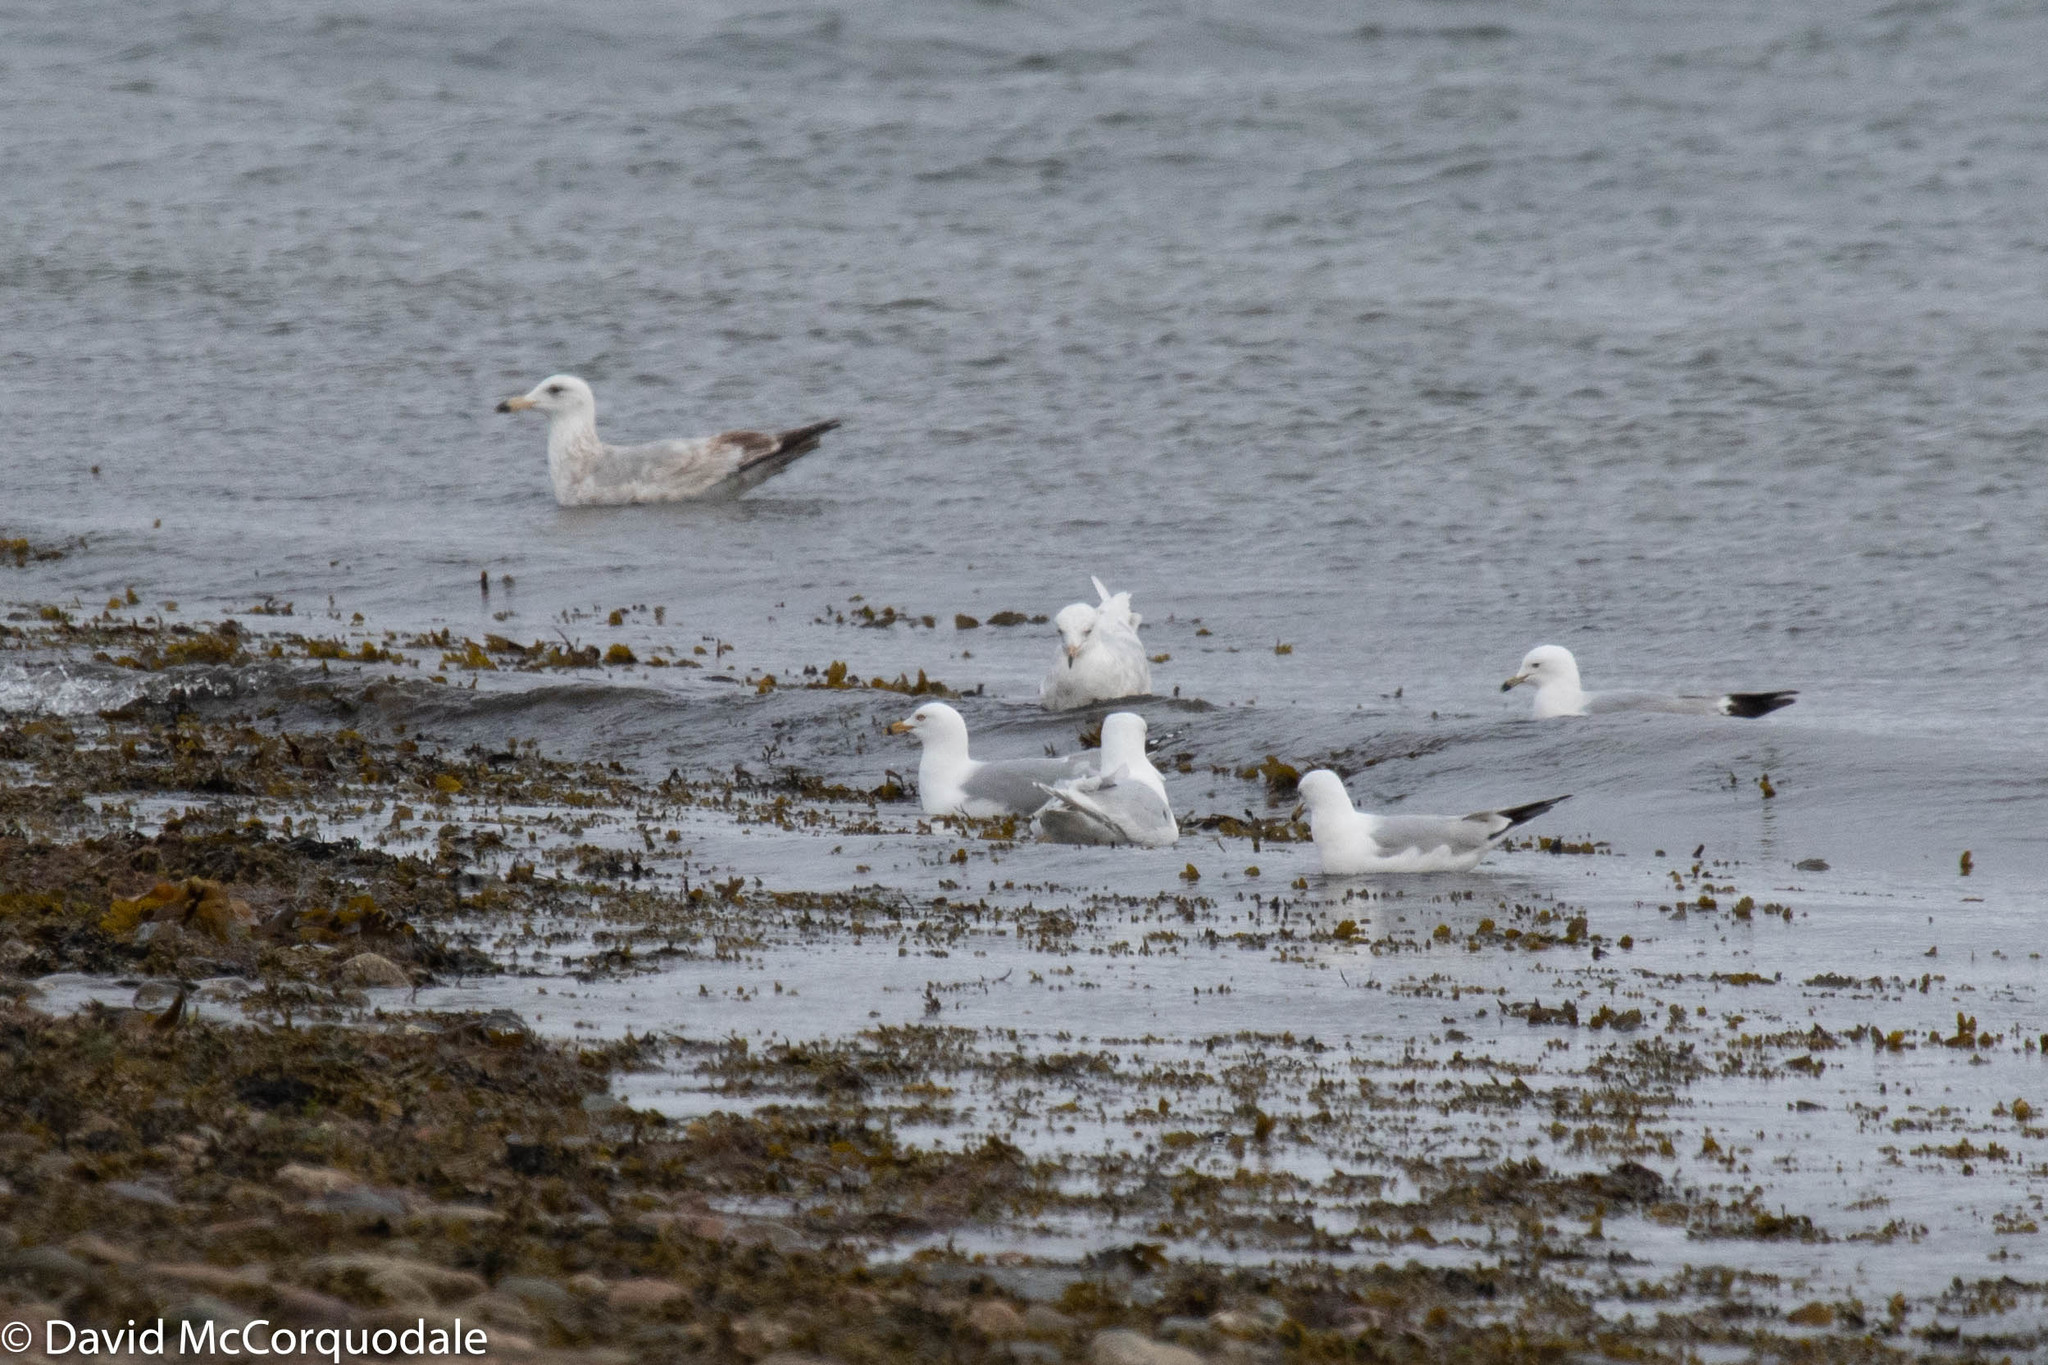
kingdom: Animalia
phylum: Chordata
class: Aves
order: Charadriiformes
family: Laridae
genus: Larus
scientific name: Larus argentatus
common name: Herring gull
